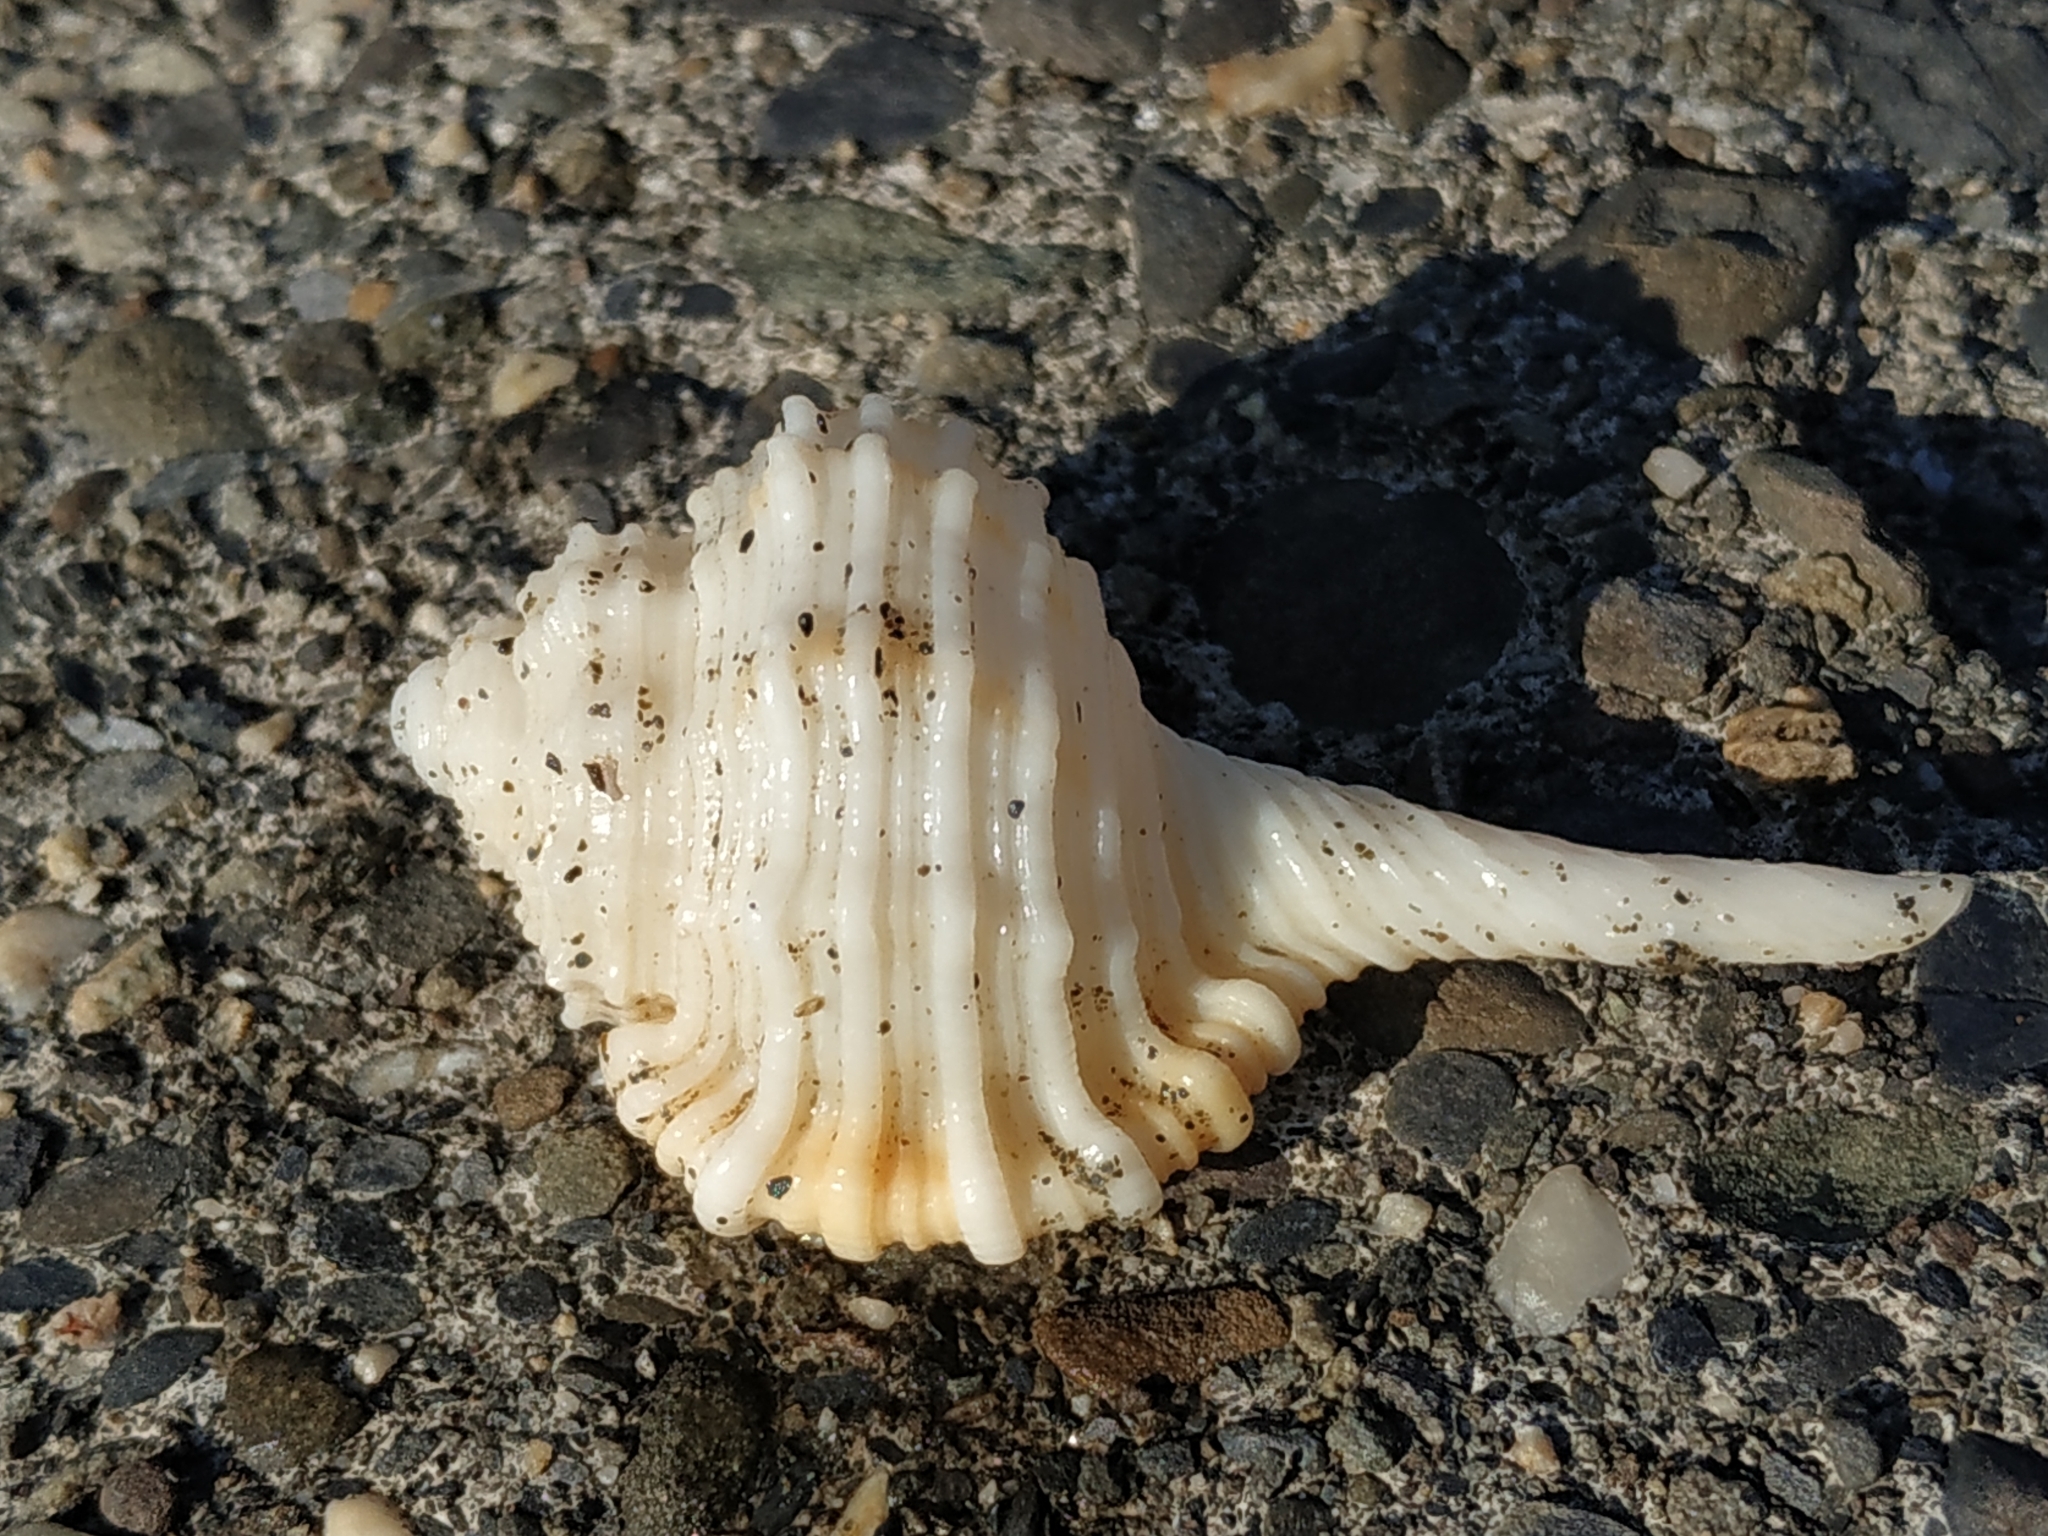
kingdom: Animalia
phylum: Mollusca
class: Gastropoda
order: Littorinimorpha
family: Cymatiidae
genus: Ranularia
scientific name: Ranularia caudata
